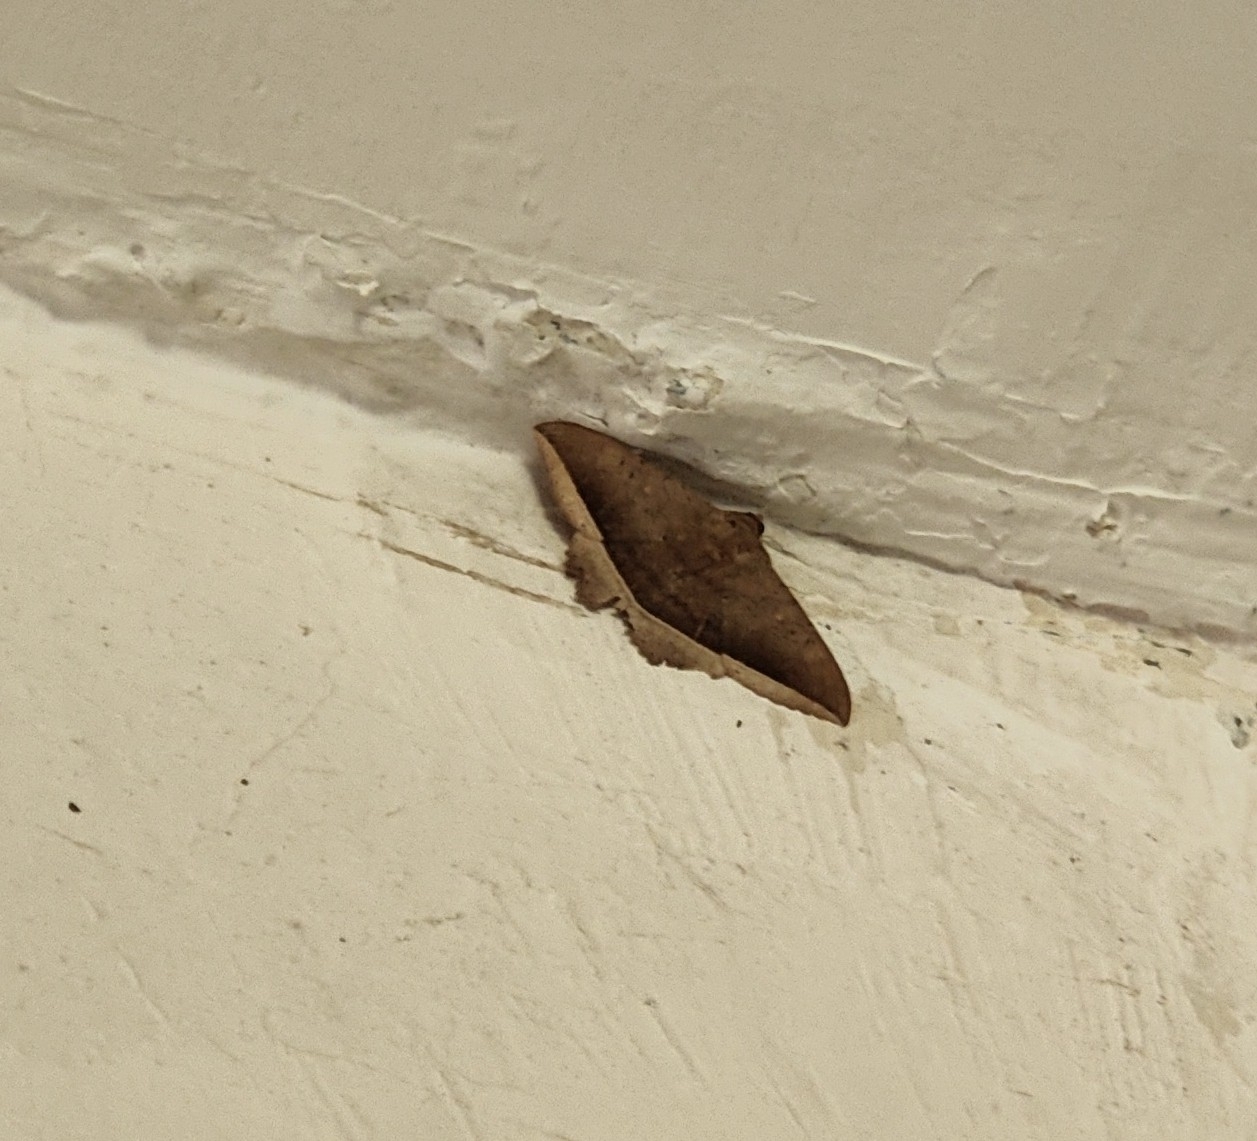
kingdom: Animalia
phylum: Arthropoda
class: Insecta
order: Lepidoptera
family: Erebidae
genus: Hulodes
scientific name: Hulodes caranea
